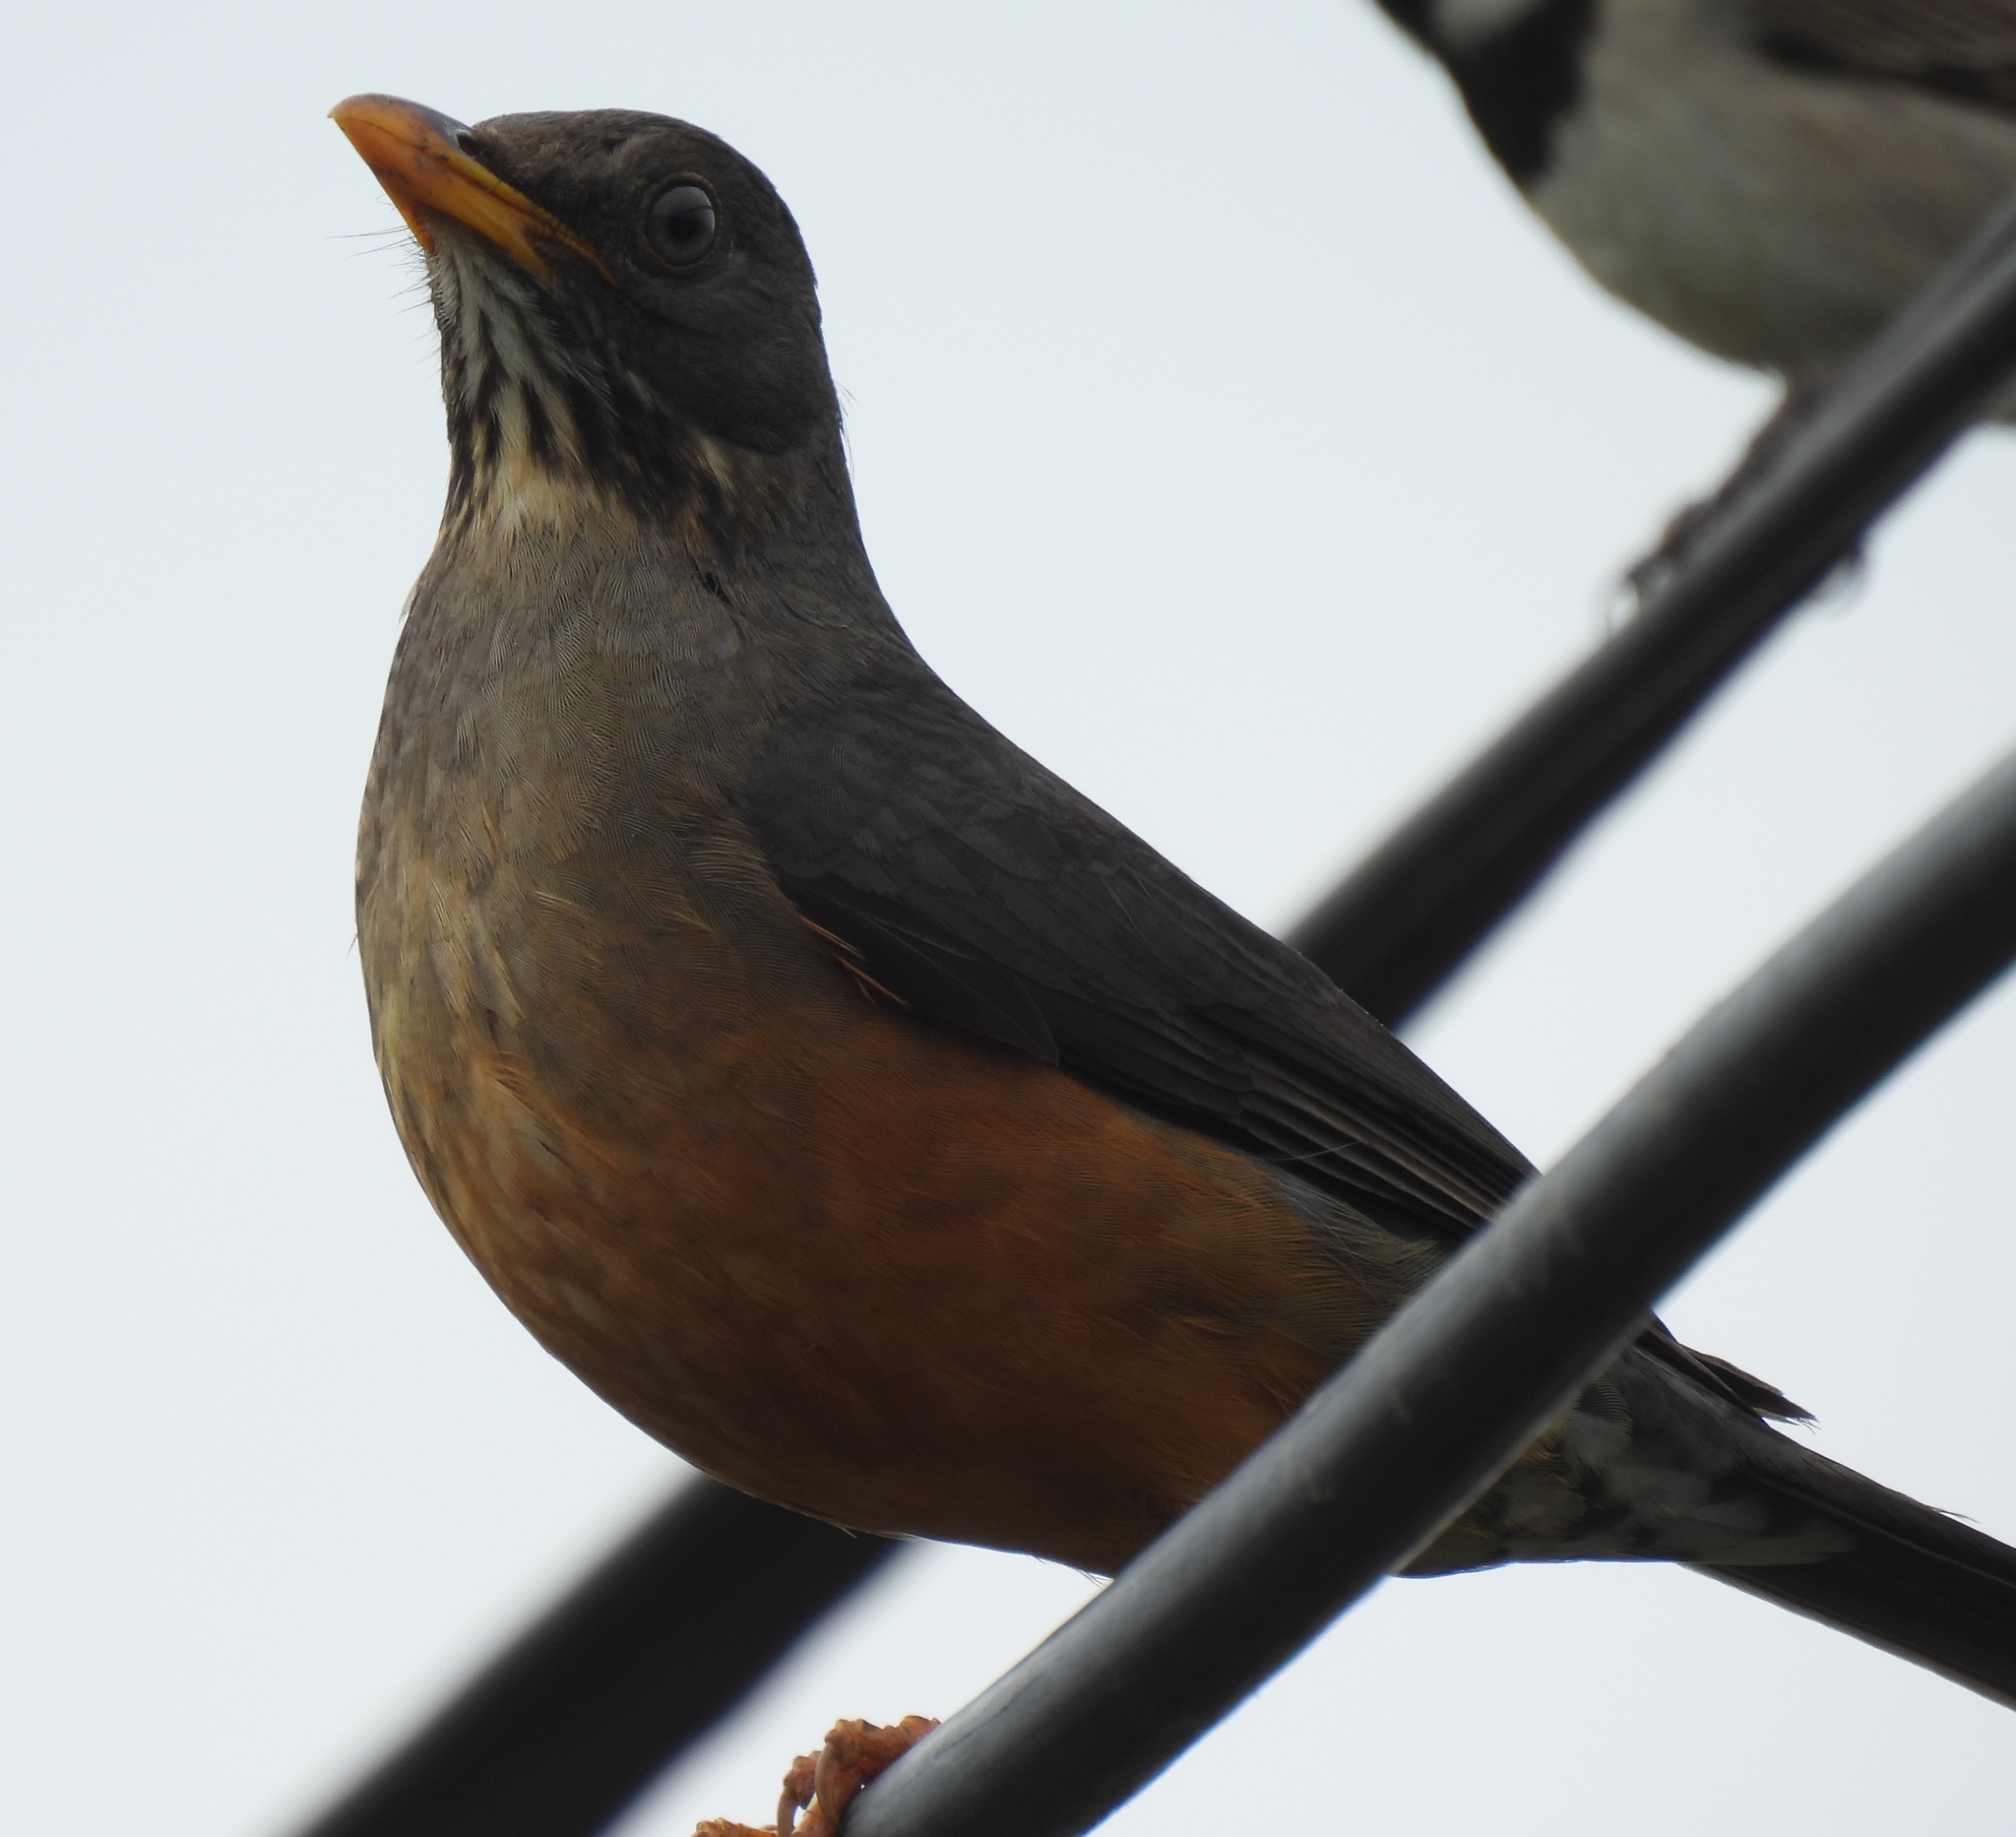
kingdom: Animalia
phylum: Chordata
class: Aves
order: Passeriformes
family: Turdidae
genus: Turdus
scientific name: Turdus olivaceus
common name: Olive thrush
